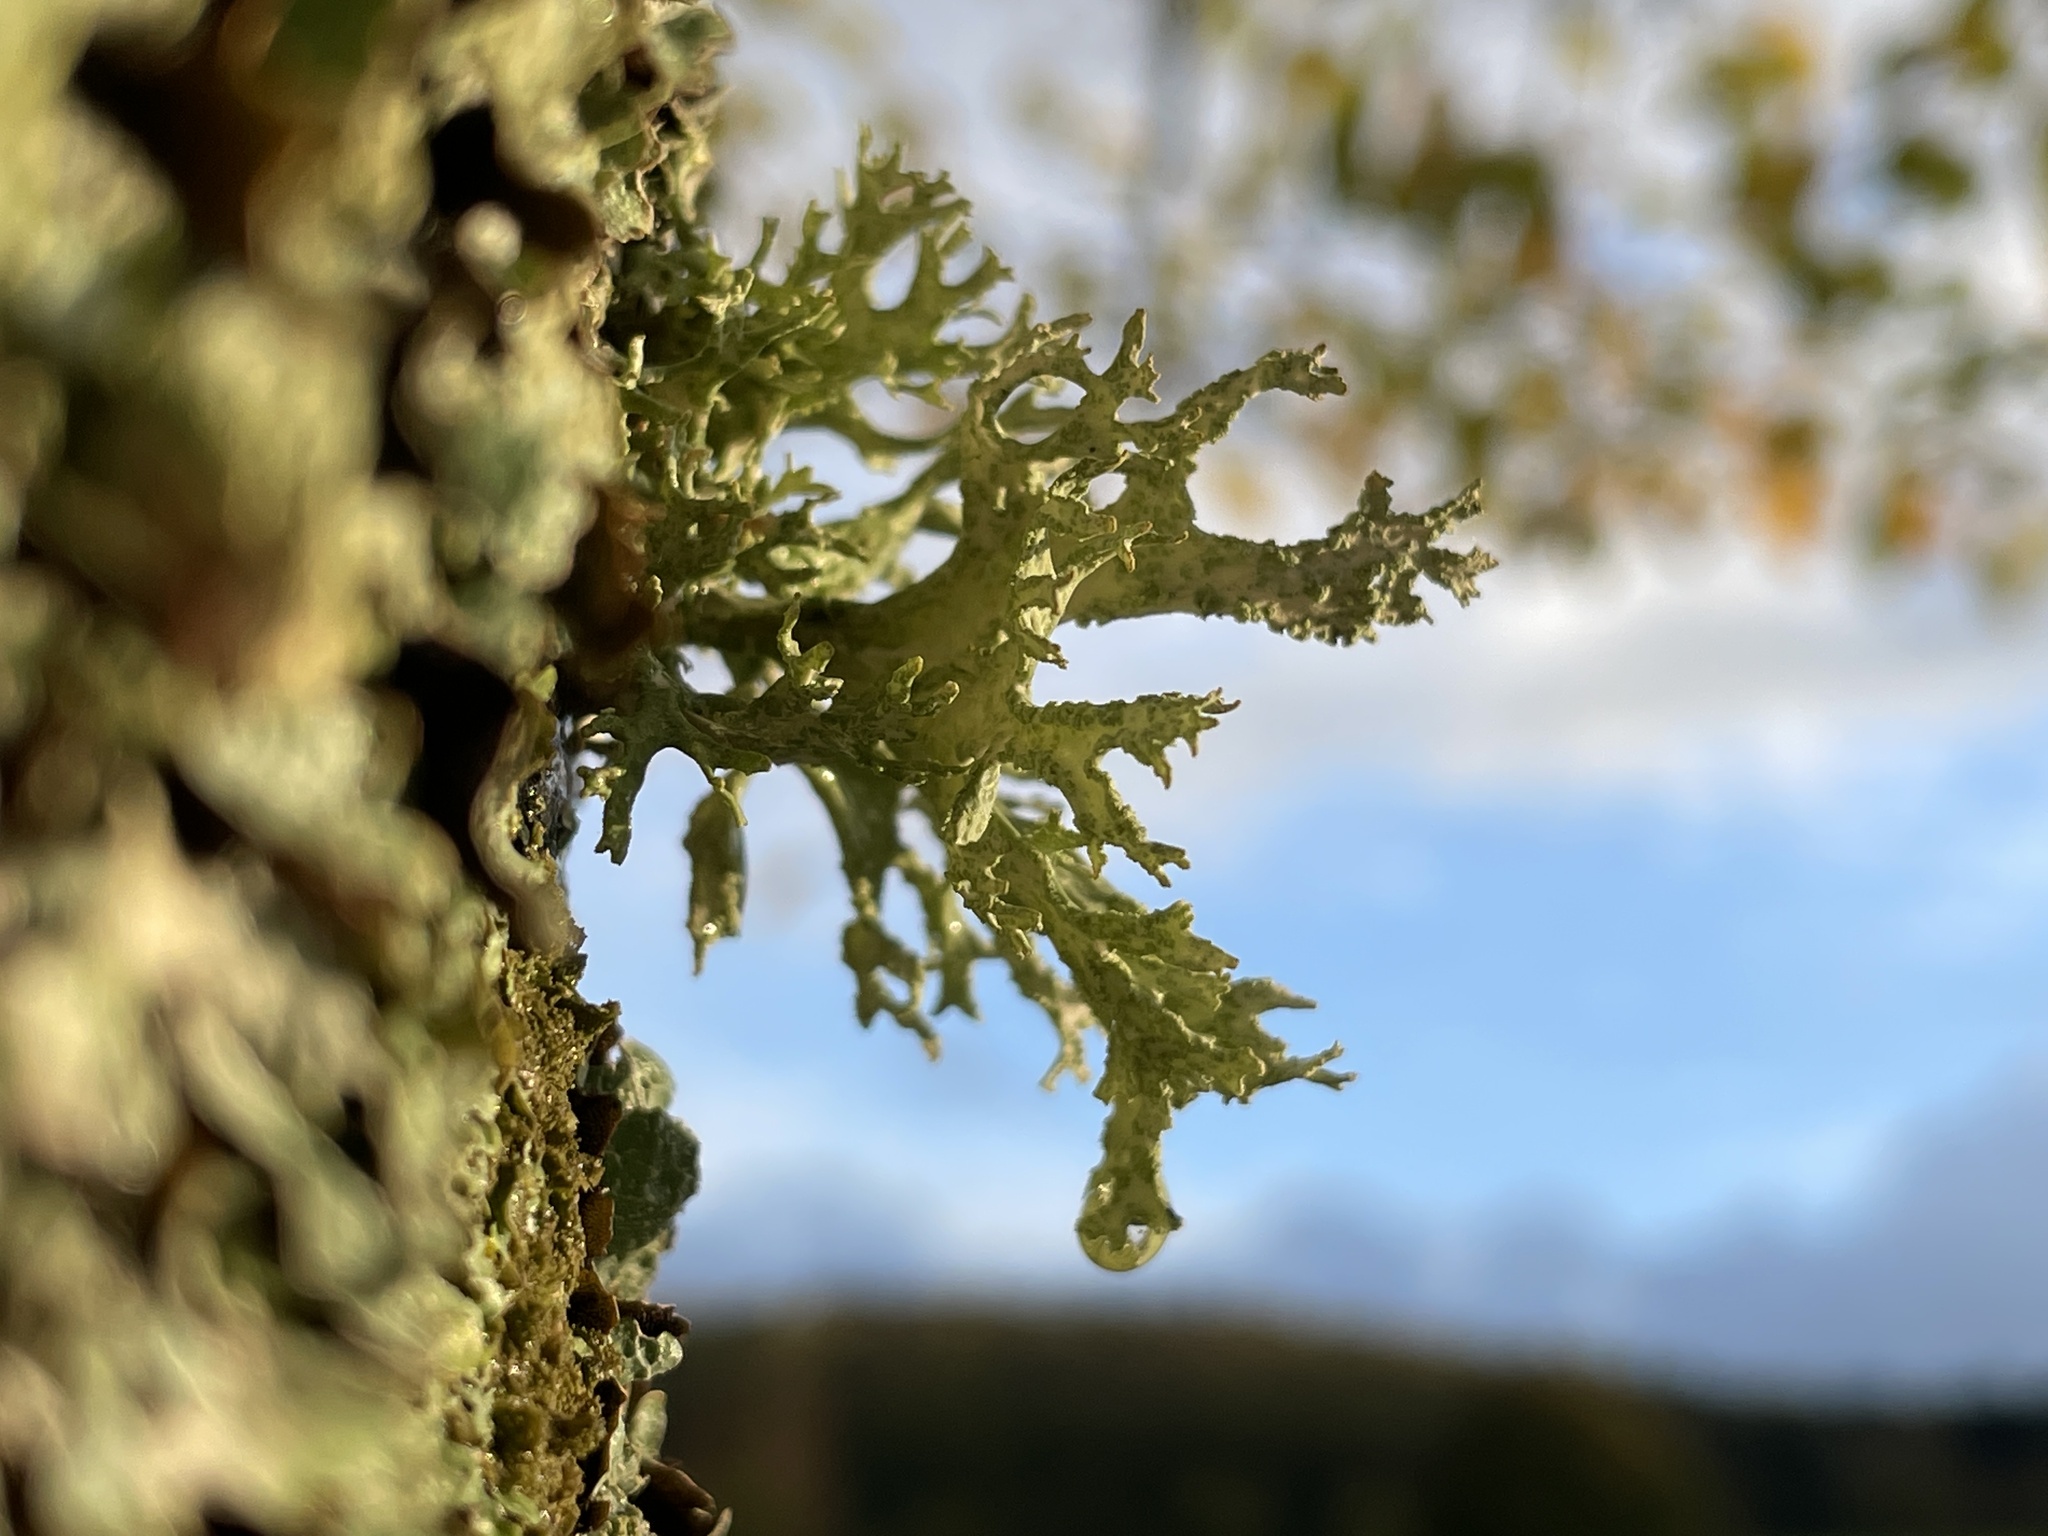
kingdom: Fungi
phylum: Ascomycota
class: Lecanoromycetes
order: Lecanorales
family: Parmeliaceae
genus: Evernia
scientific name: Evernia prunastri
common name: Oak moss
